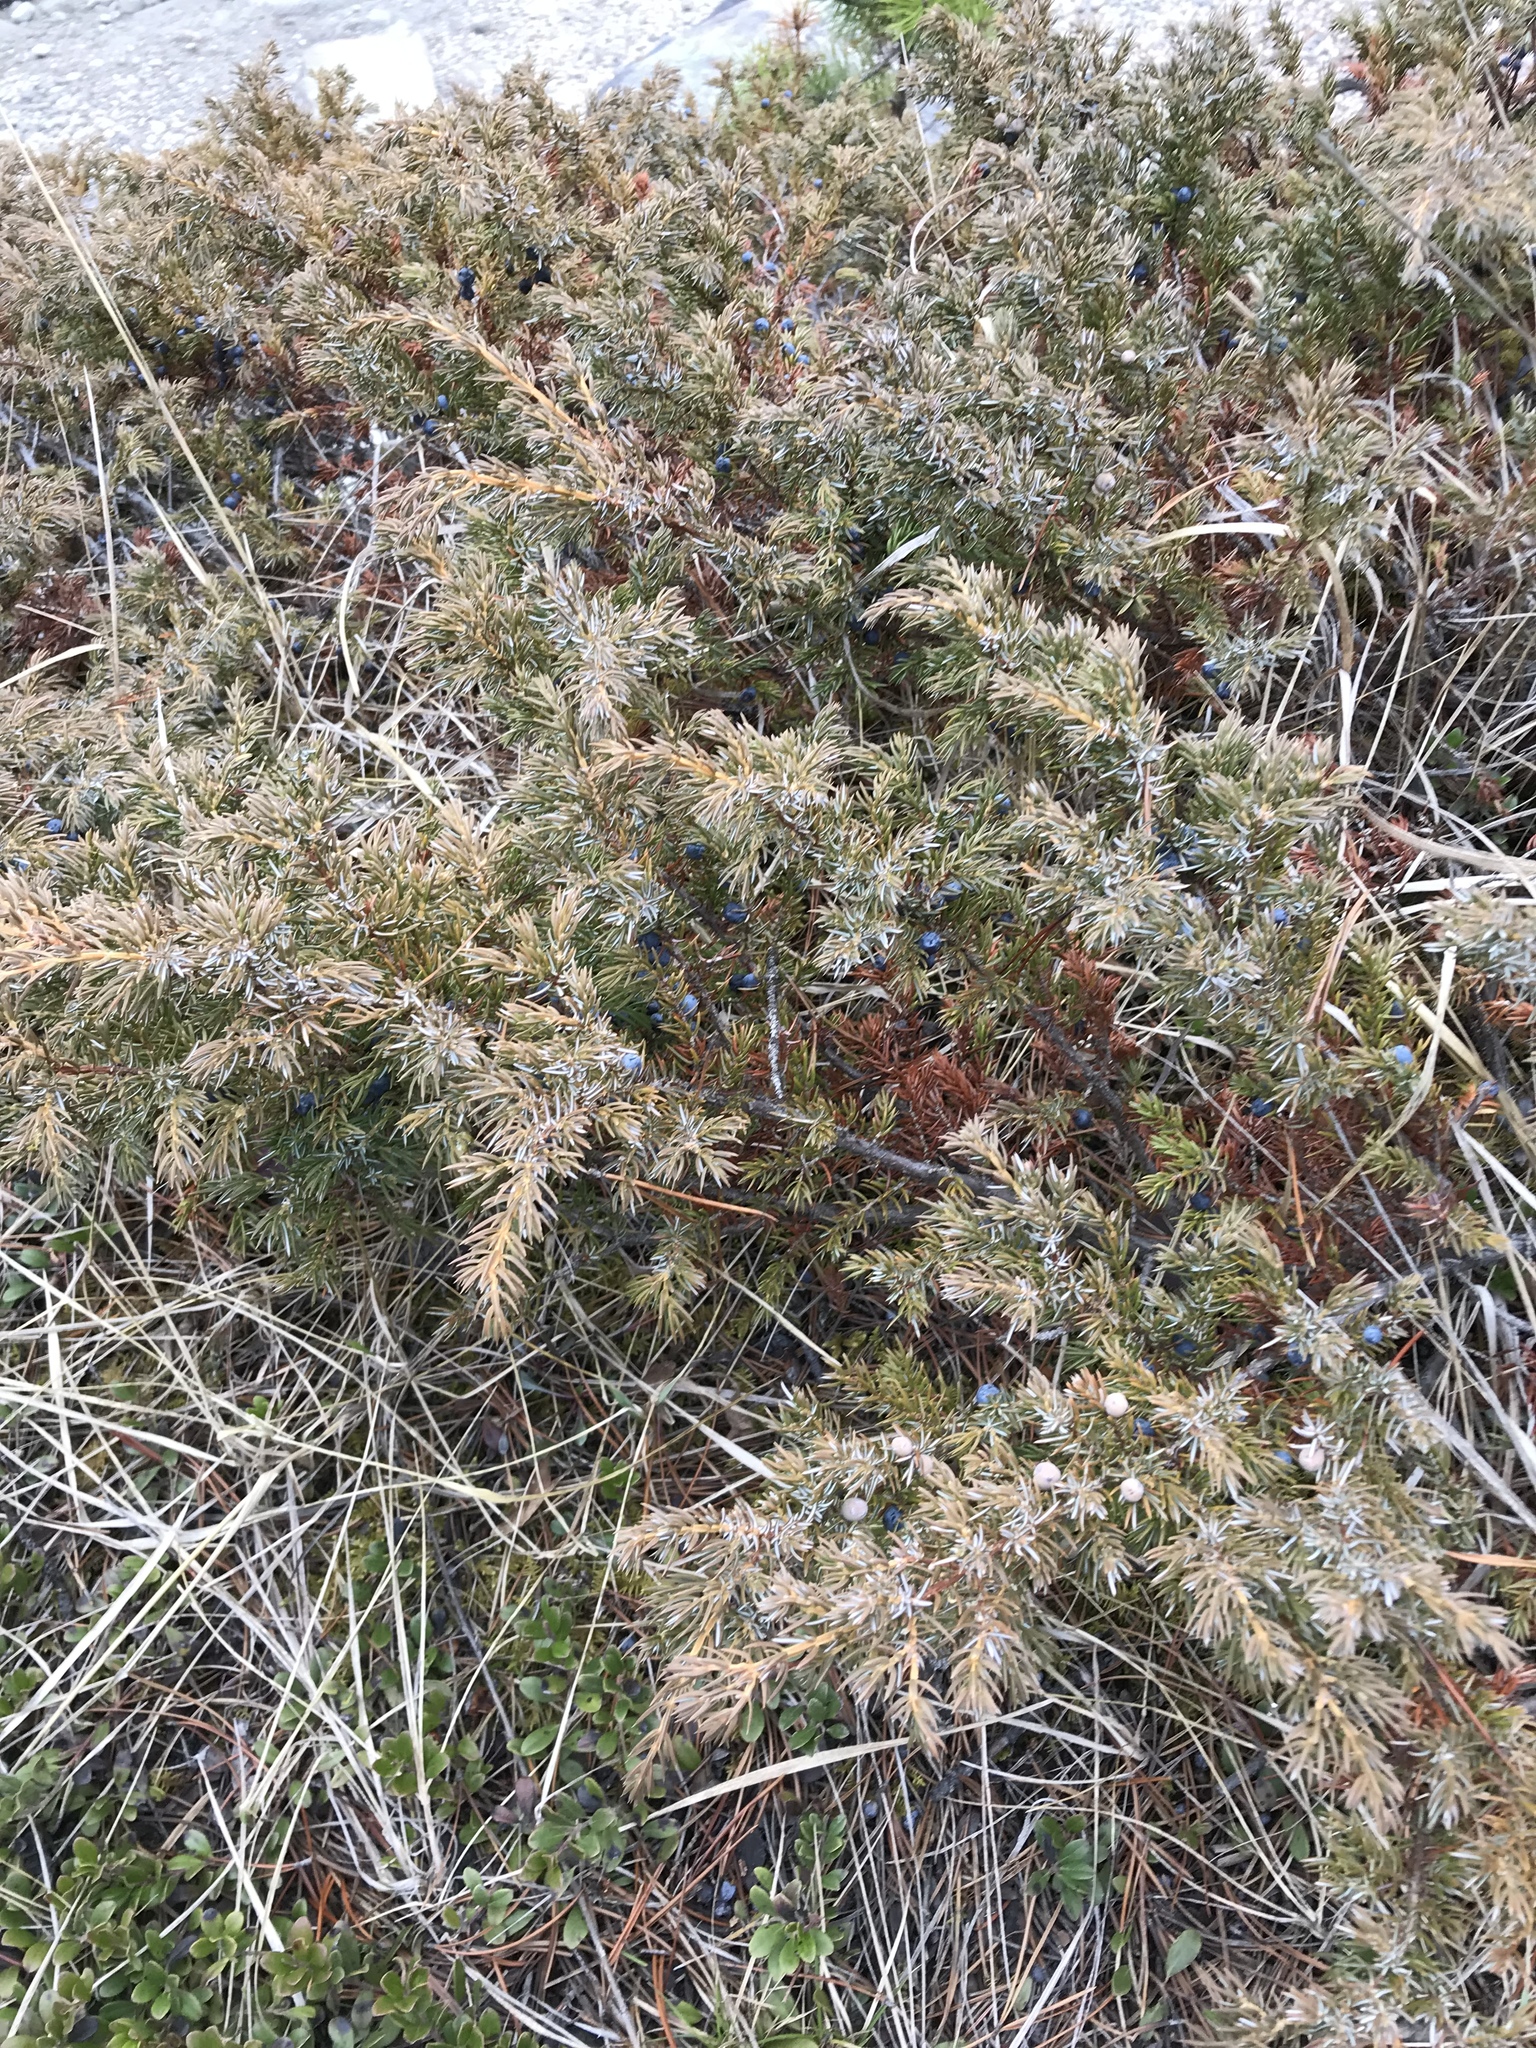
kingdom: Plantae
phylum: Tracheophyta
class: Pinopsida
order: Pinales
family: Cupressaceae
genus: Juniperus
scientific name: Juniperus communis
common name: Common juniper
